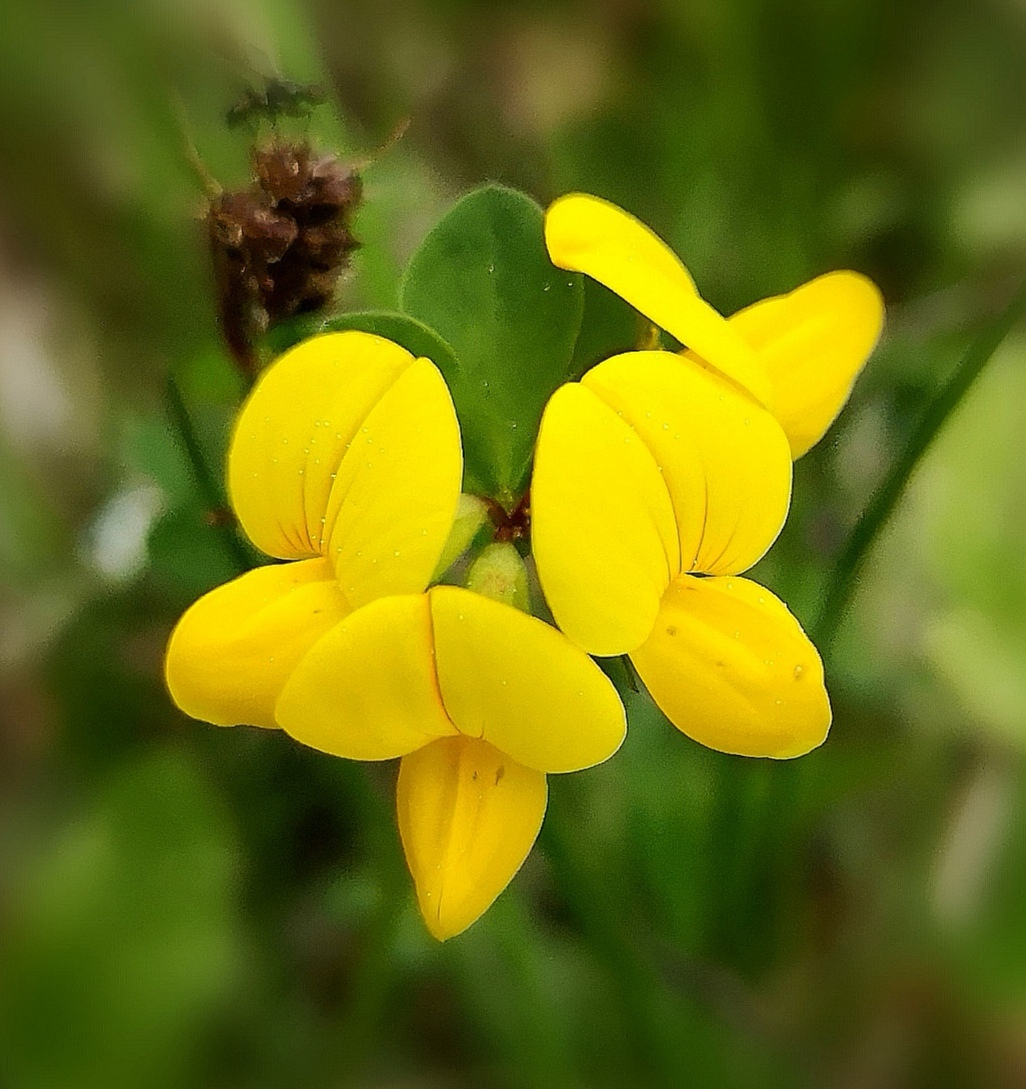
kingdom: Plantae
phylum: Tracheophyta
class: Magnoliopsida
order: Fabales
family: Fabaceae
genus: Lotus
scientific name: Lotus corniculatus
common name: Common bird's-foot-trefoil
